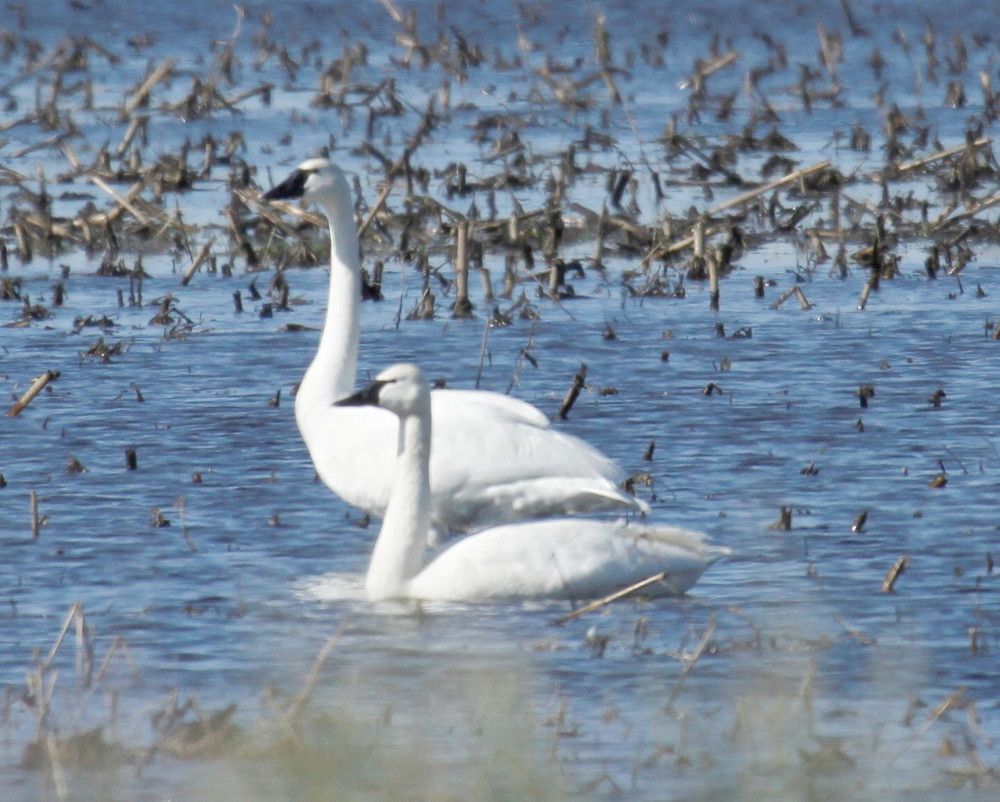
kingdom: Animalia
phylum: Chordata
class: Aves
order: Anseriformes
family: Anatidae
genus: Cygnus
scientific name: Cygnus columbianus
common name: Tundra swan
